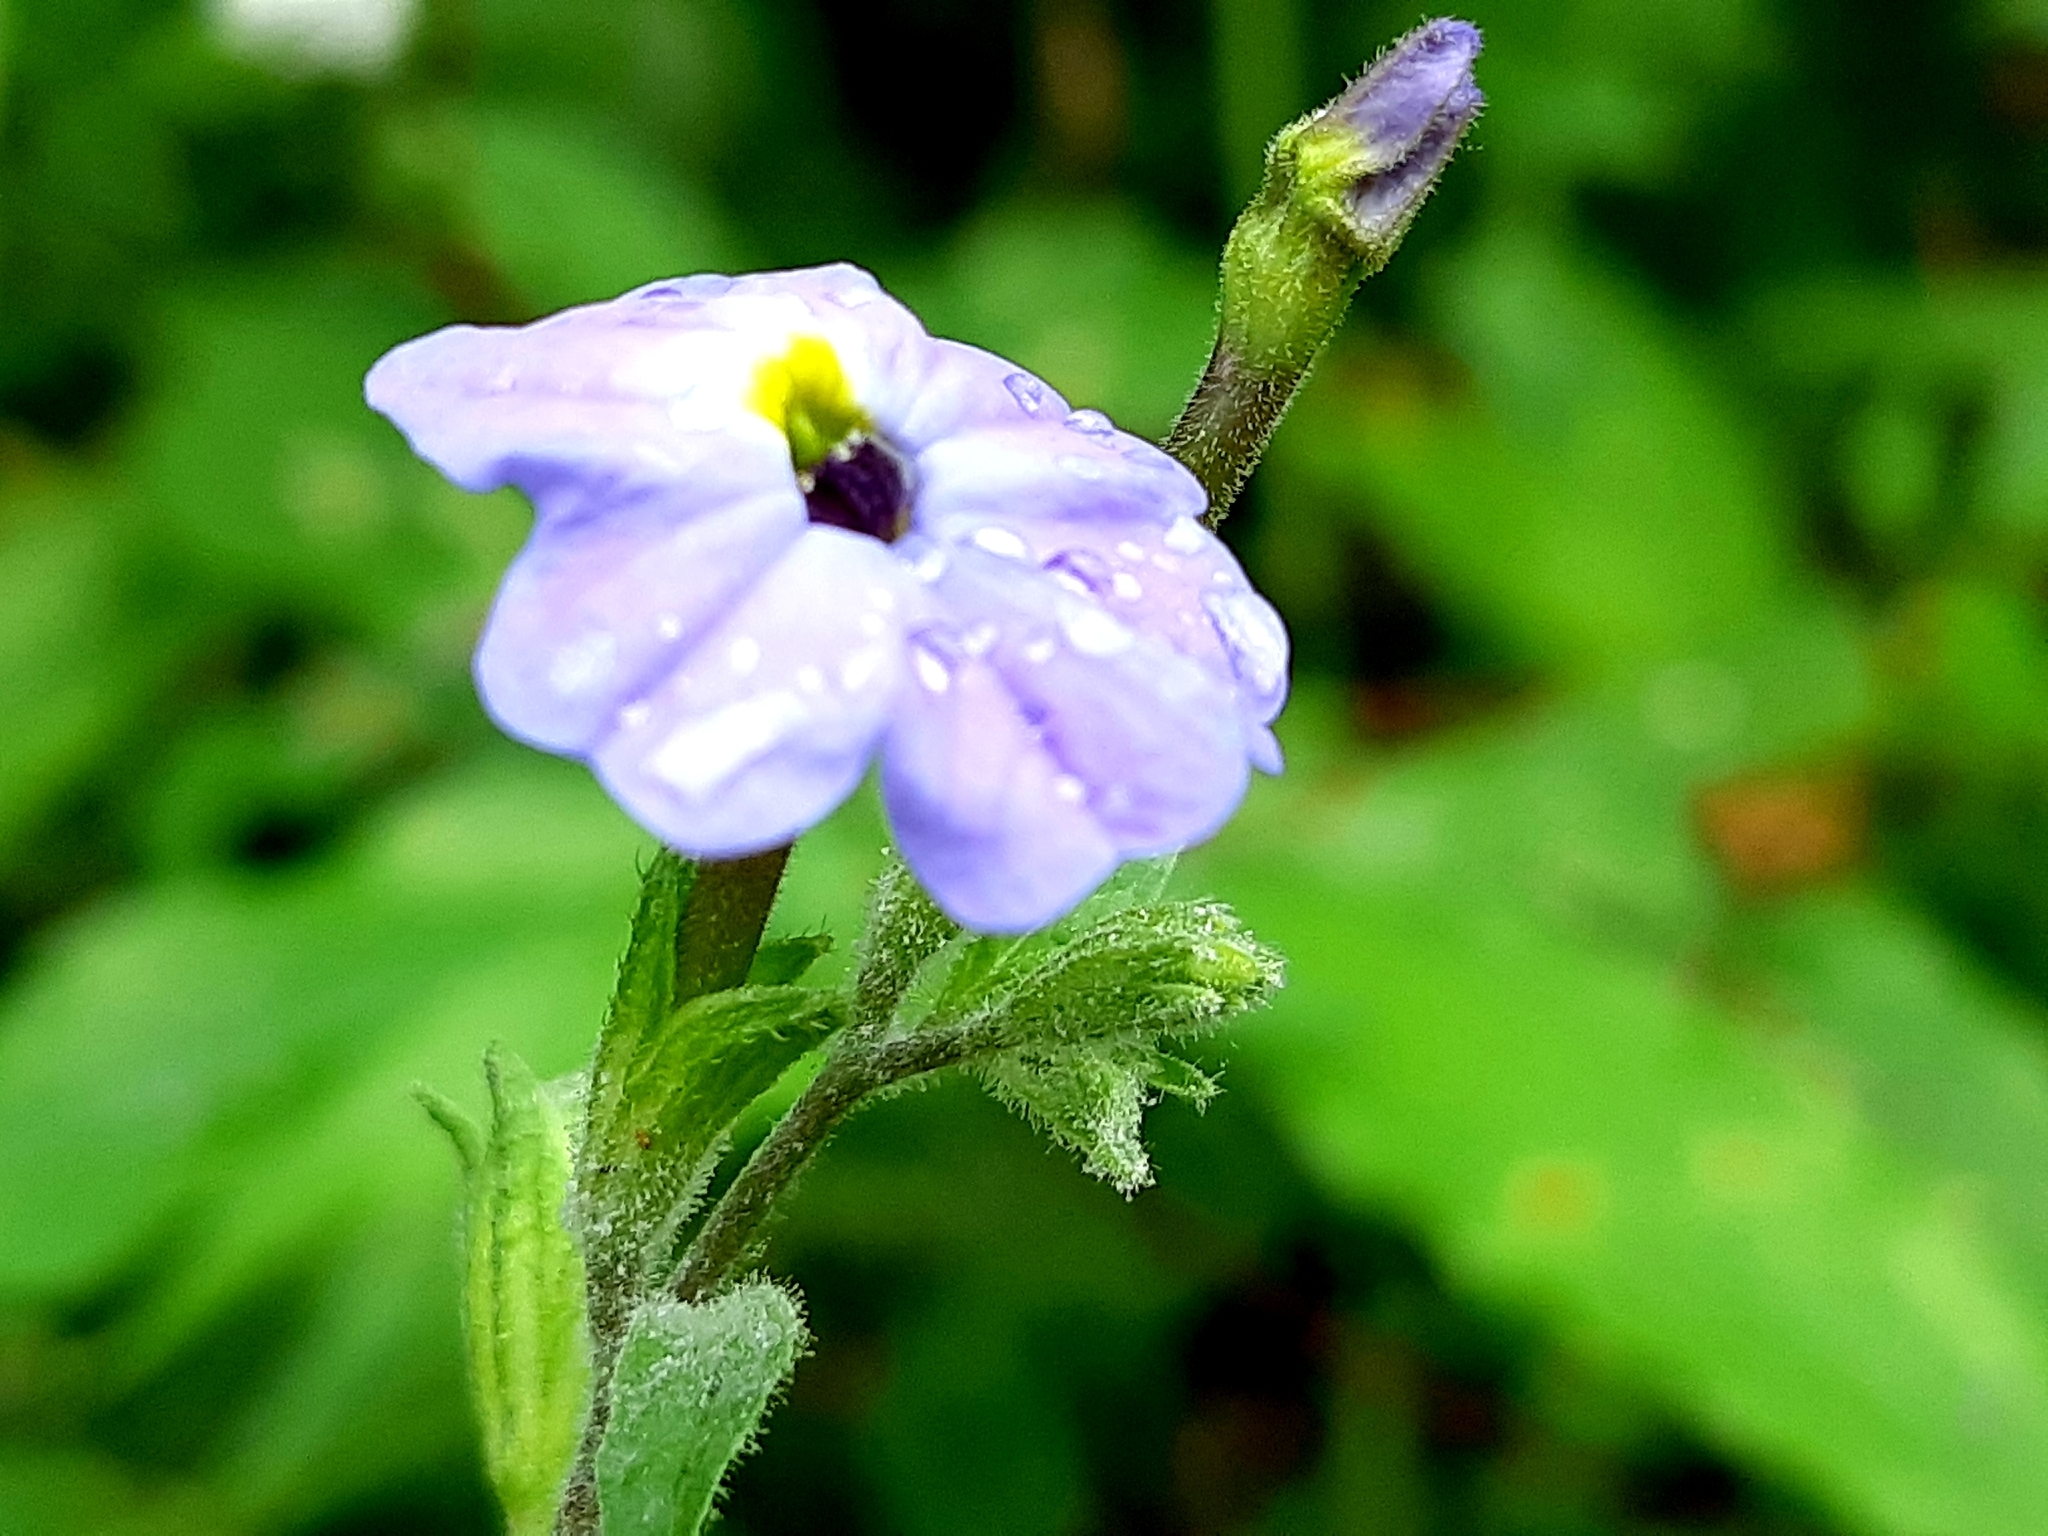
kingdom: Plantae
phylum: Tracheophyta
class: Magnoliopsida
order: Solanales
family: Solanaceae
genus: Browallia
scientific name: Browallia americana
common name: Jamaican forget-me-not
